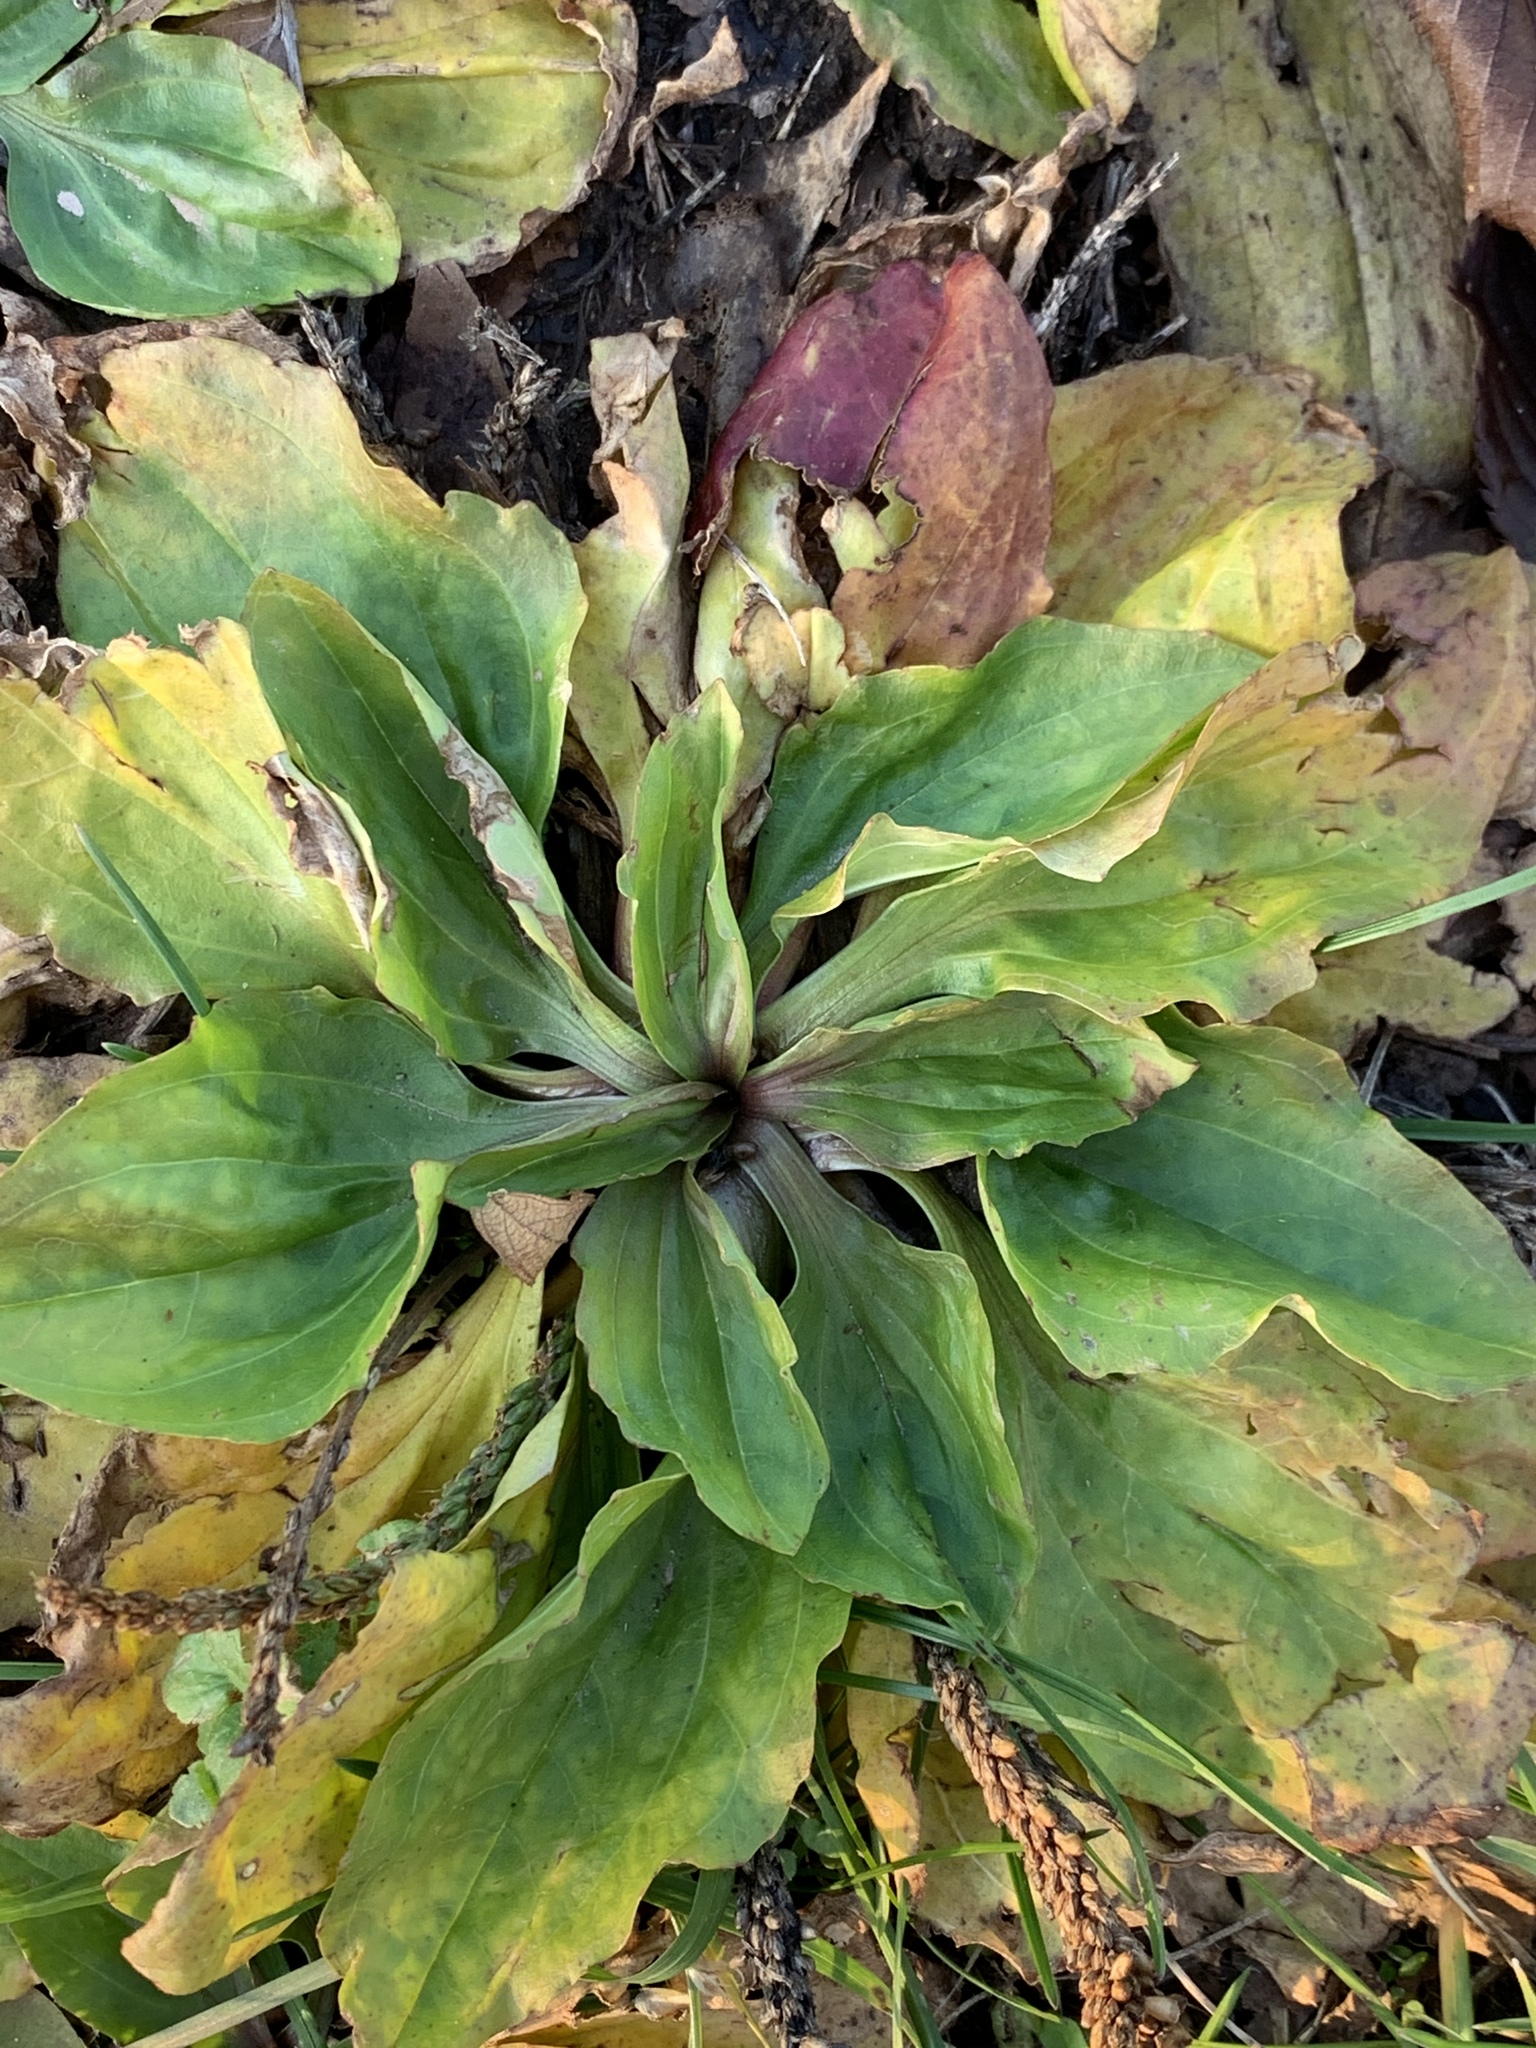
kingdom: Plantae
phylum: Tracheophyta
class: Magnoliopsida
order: Lamiales
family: Plantaginaceae
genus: Plantago
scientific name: Plantago rugelii
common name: American plantain
